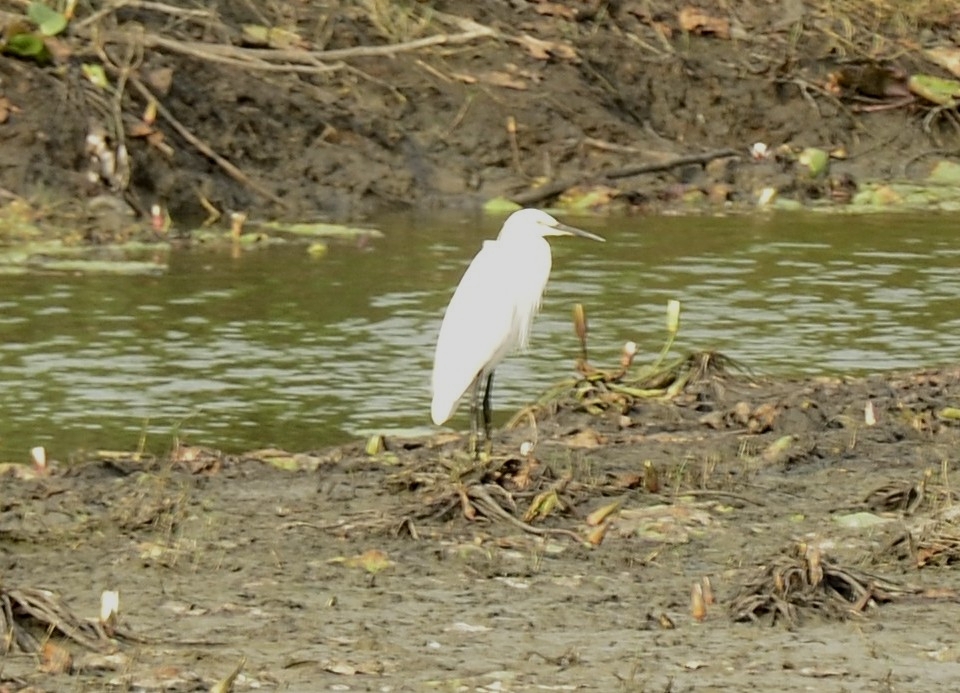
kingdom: Animalia
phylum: Chordata
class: Aves
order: Pelecaniformes
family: Ardeidae
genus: Egretta
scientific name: Egretta garzetta
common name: Little egret
